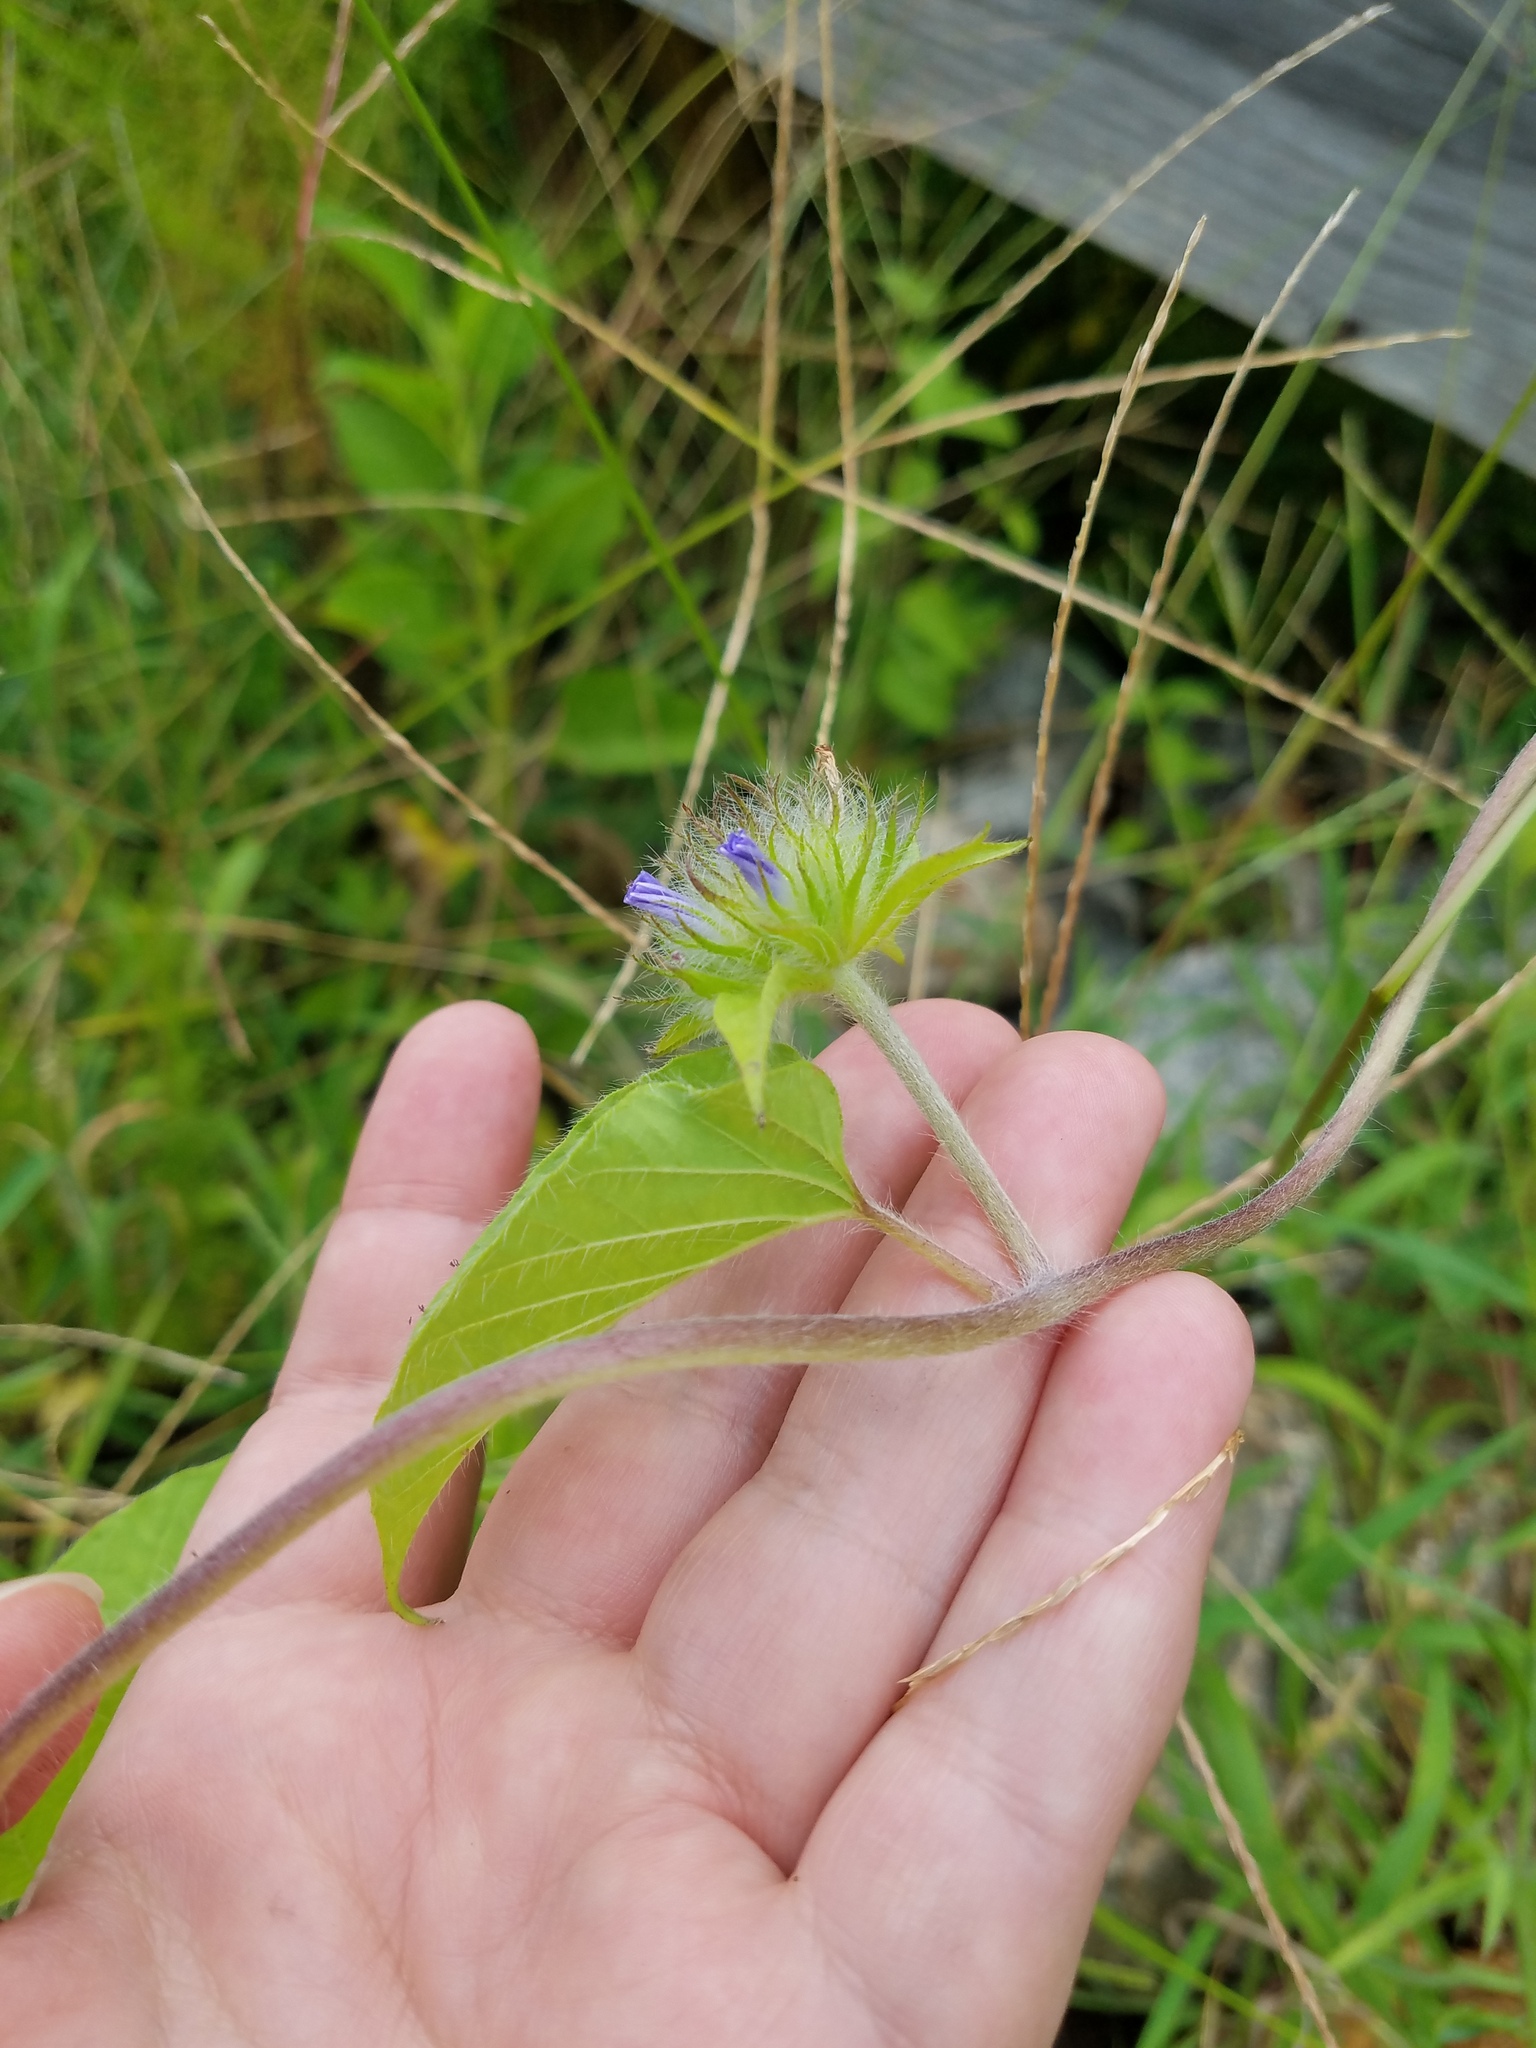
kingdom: Plantae
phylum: Tracheophyta
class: Magnoliopsida
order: Solanales
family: Convolvulaceae
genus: Jacquemontia
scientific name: Jacquemontia tamnifolia
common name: Hairy clustervine
